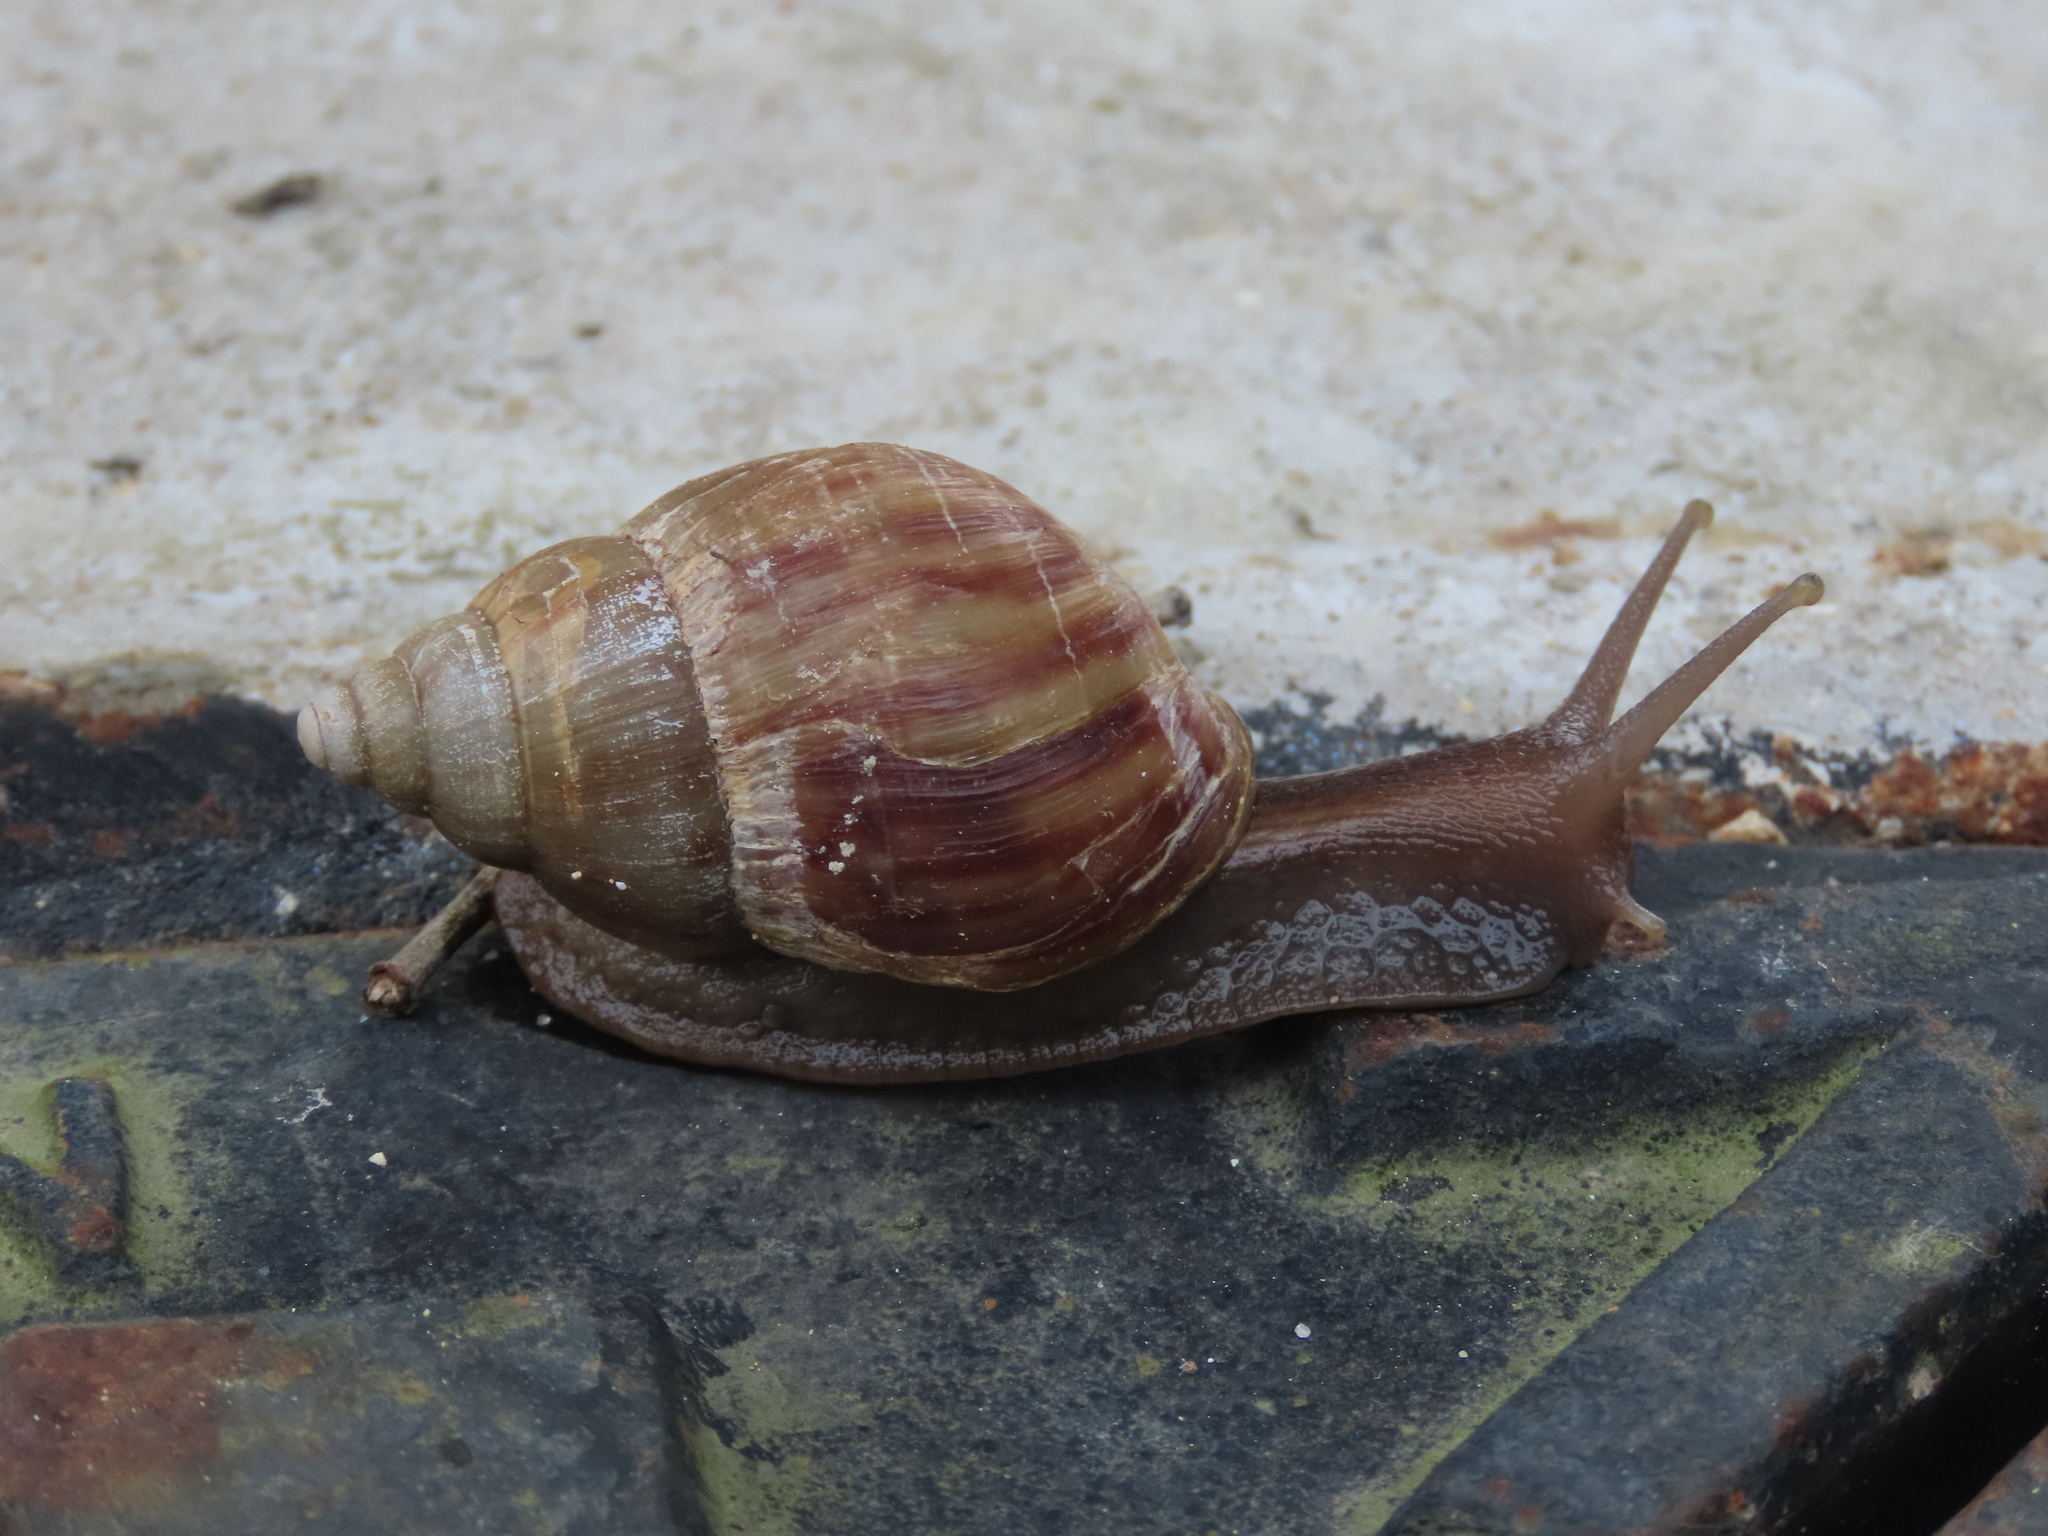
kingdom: Animalia
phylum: Mollusca
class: Gastropoda
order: Stylommatophora
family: Achatinidae
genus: Lissachatina
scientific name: Lissachatina fulica
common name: Giant african snail
